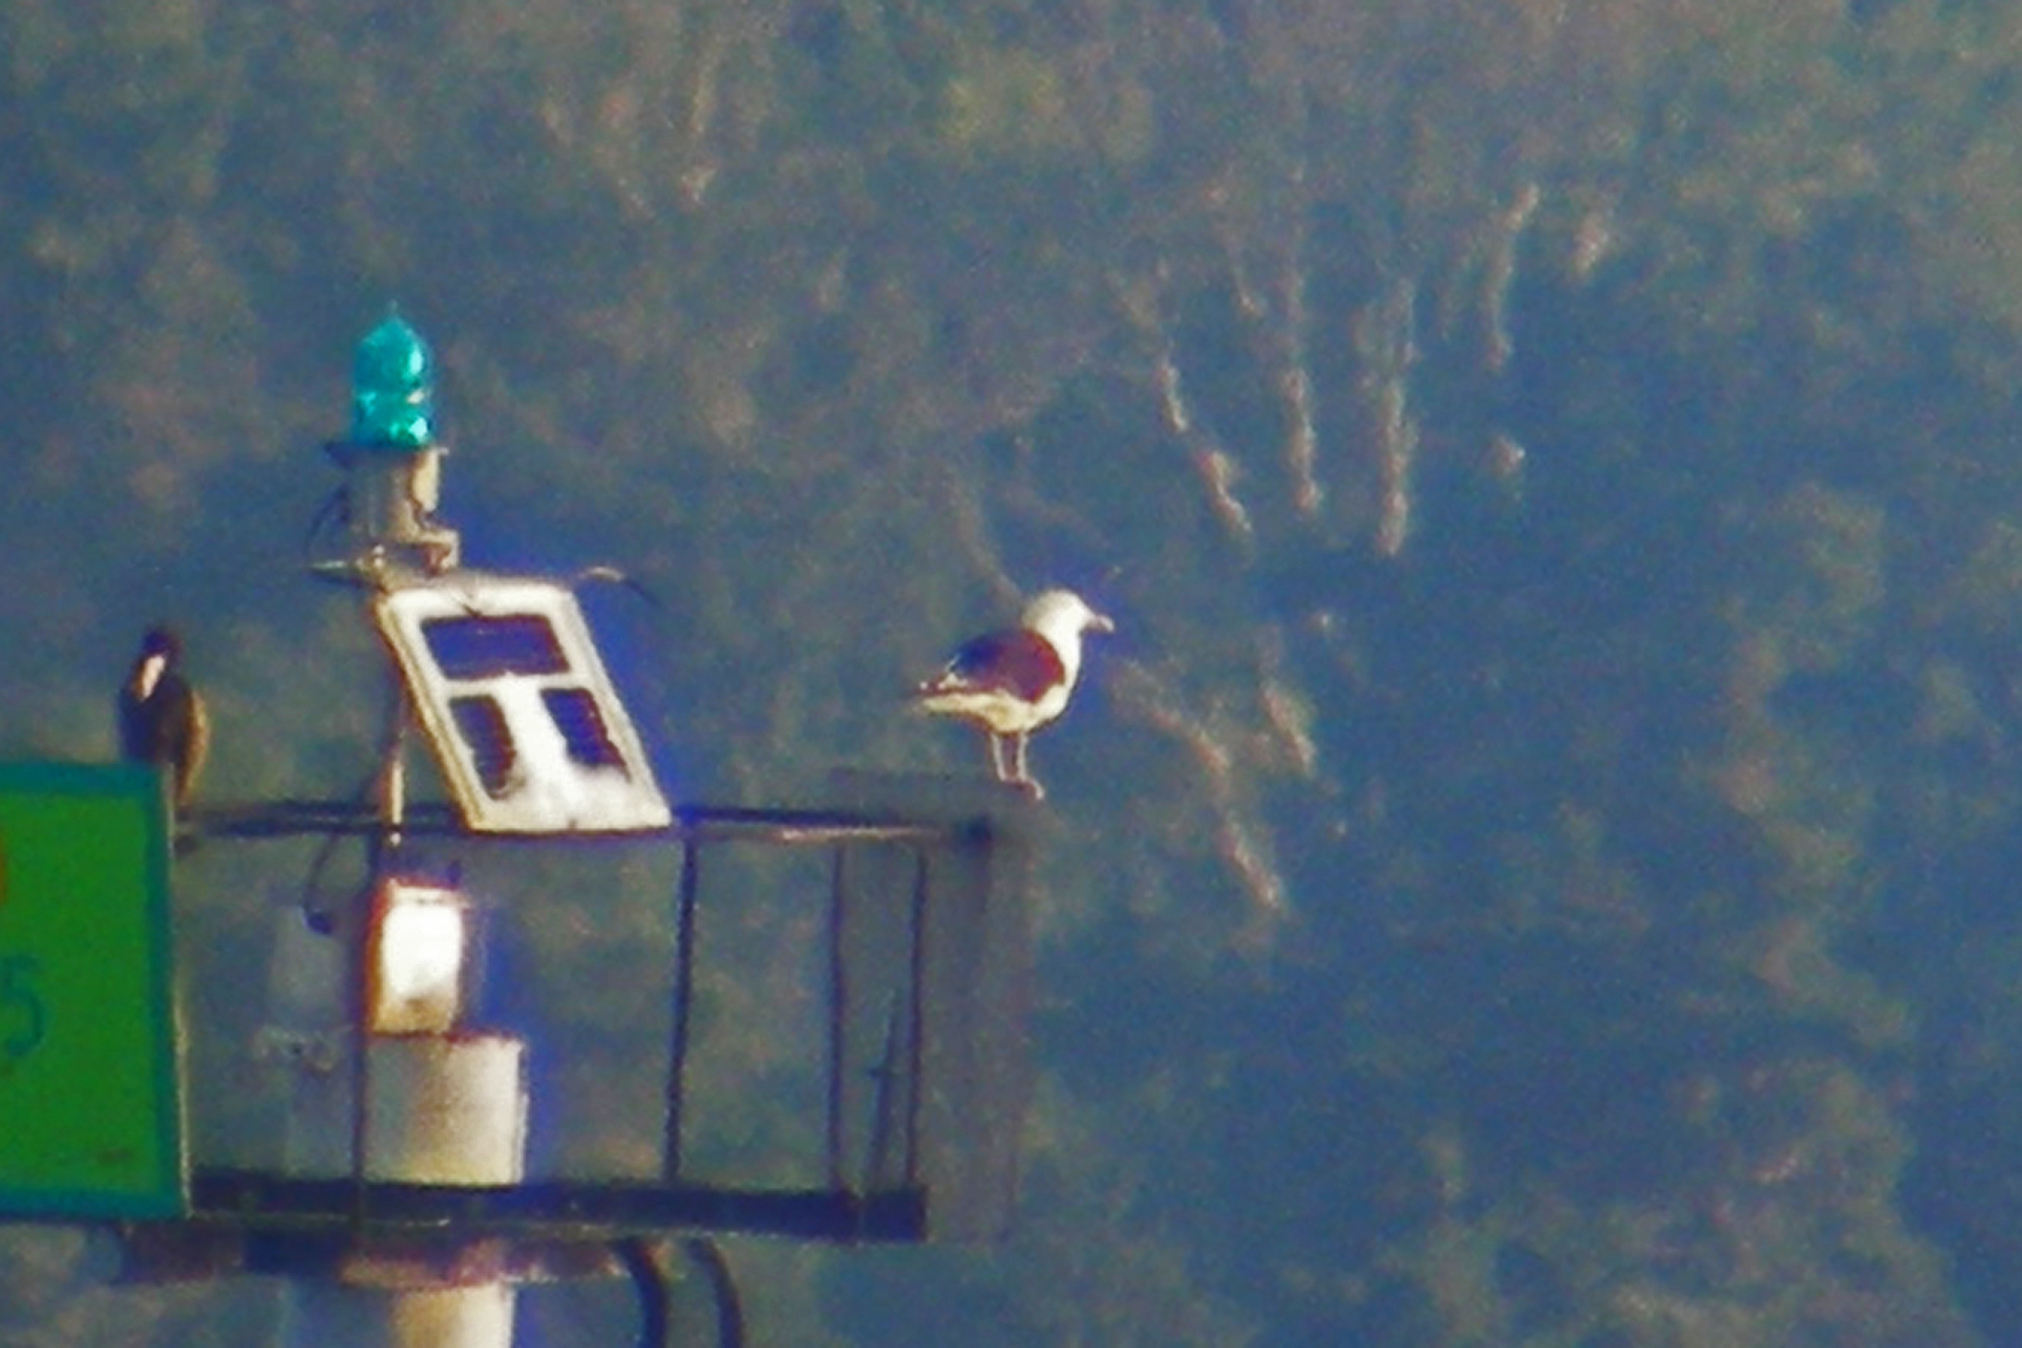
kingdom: Animalia
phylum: Chordata
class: Aves
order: Charadriiformes
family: Laridae
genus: Larus
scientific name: Larus marinus
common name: Great black-backed gull
